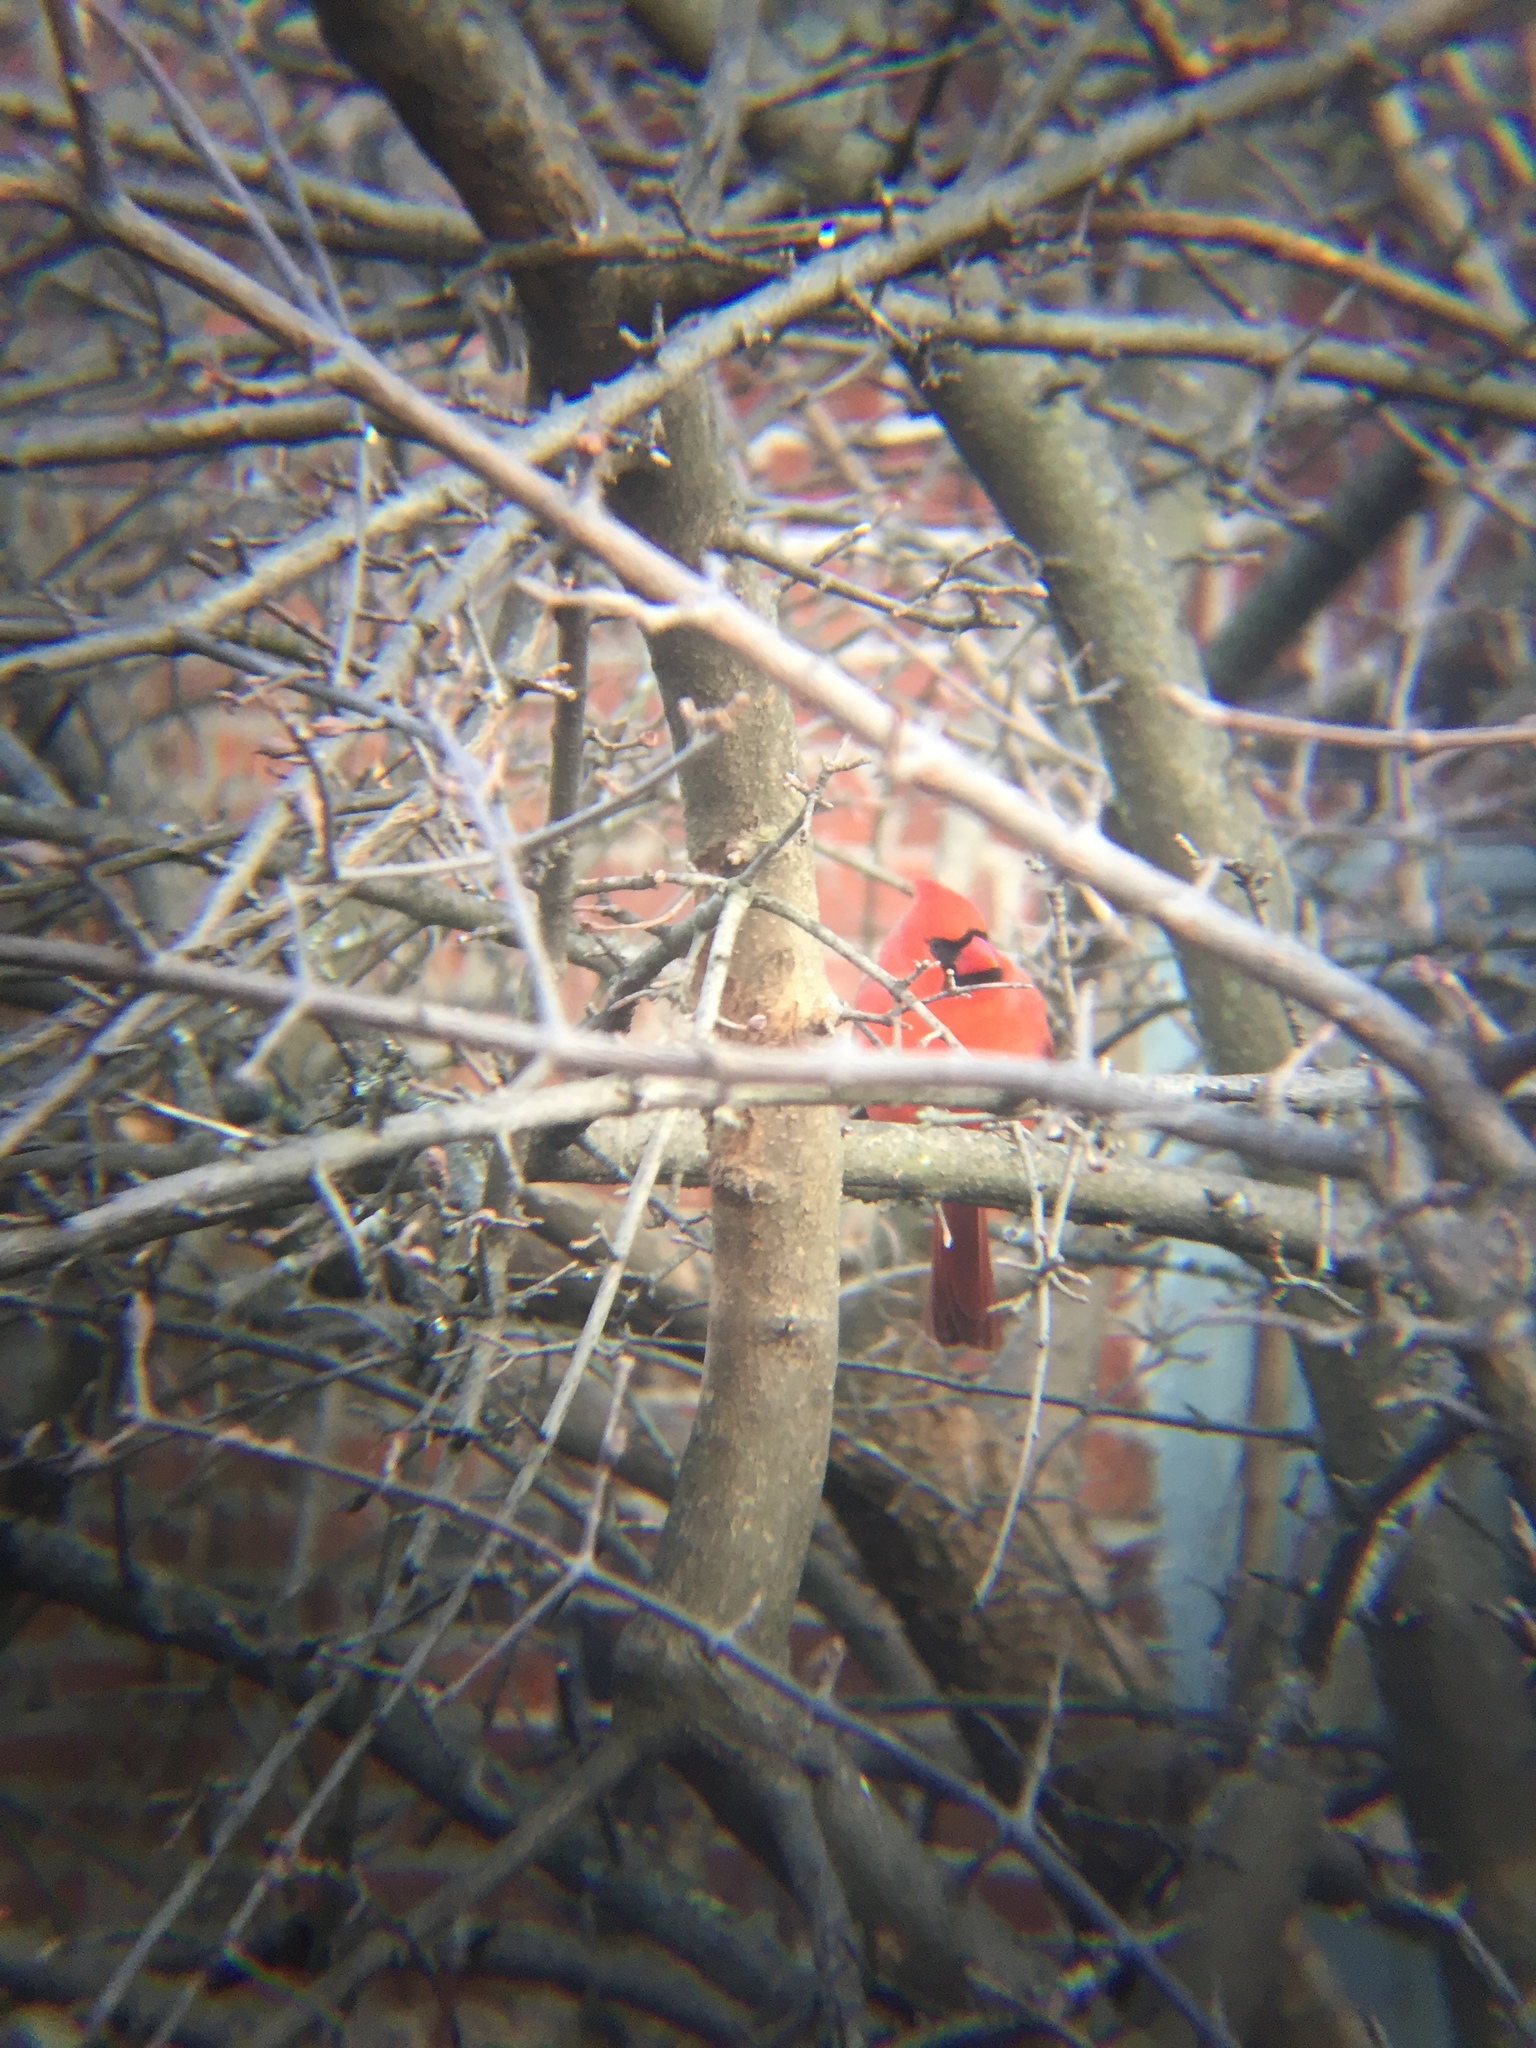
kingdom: Animalia
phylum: Chordata
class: Aves
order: Passeriformes
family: Cardinalidae
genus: Cardinalis
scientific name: Cardinalis cardinalis
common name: Northern cardinal
